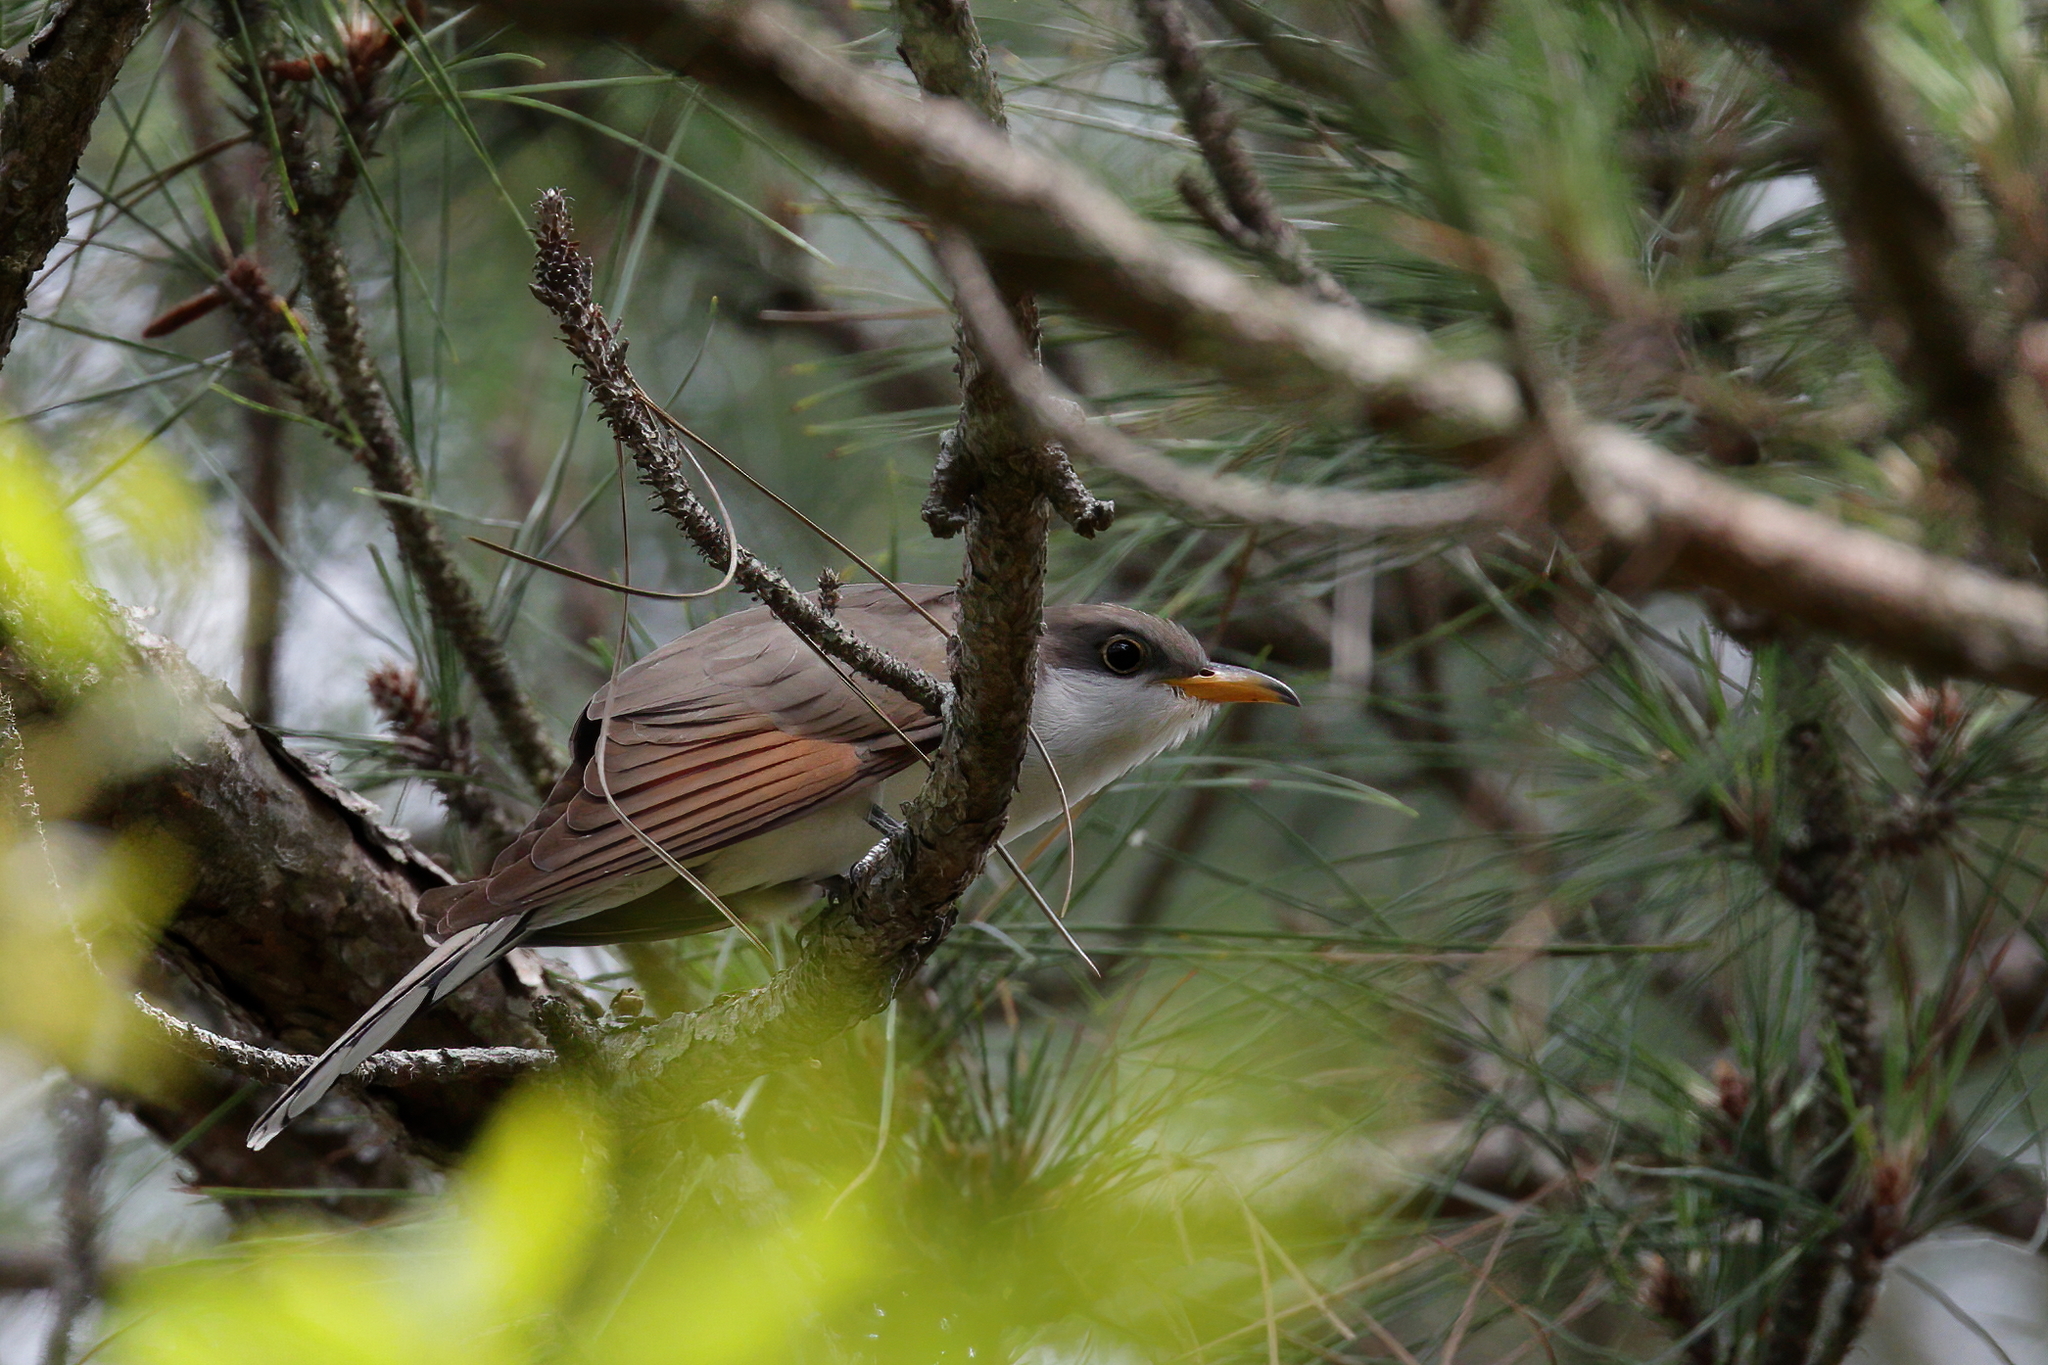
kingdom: Animalia
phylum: Chordata
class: Aves
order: Cuculiformes
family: Cuculidae
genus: Coccyzus
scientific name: Coccyzus americanus
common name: Yellow-billed cuckoo
